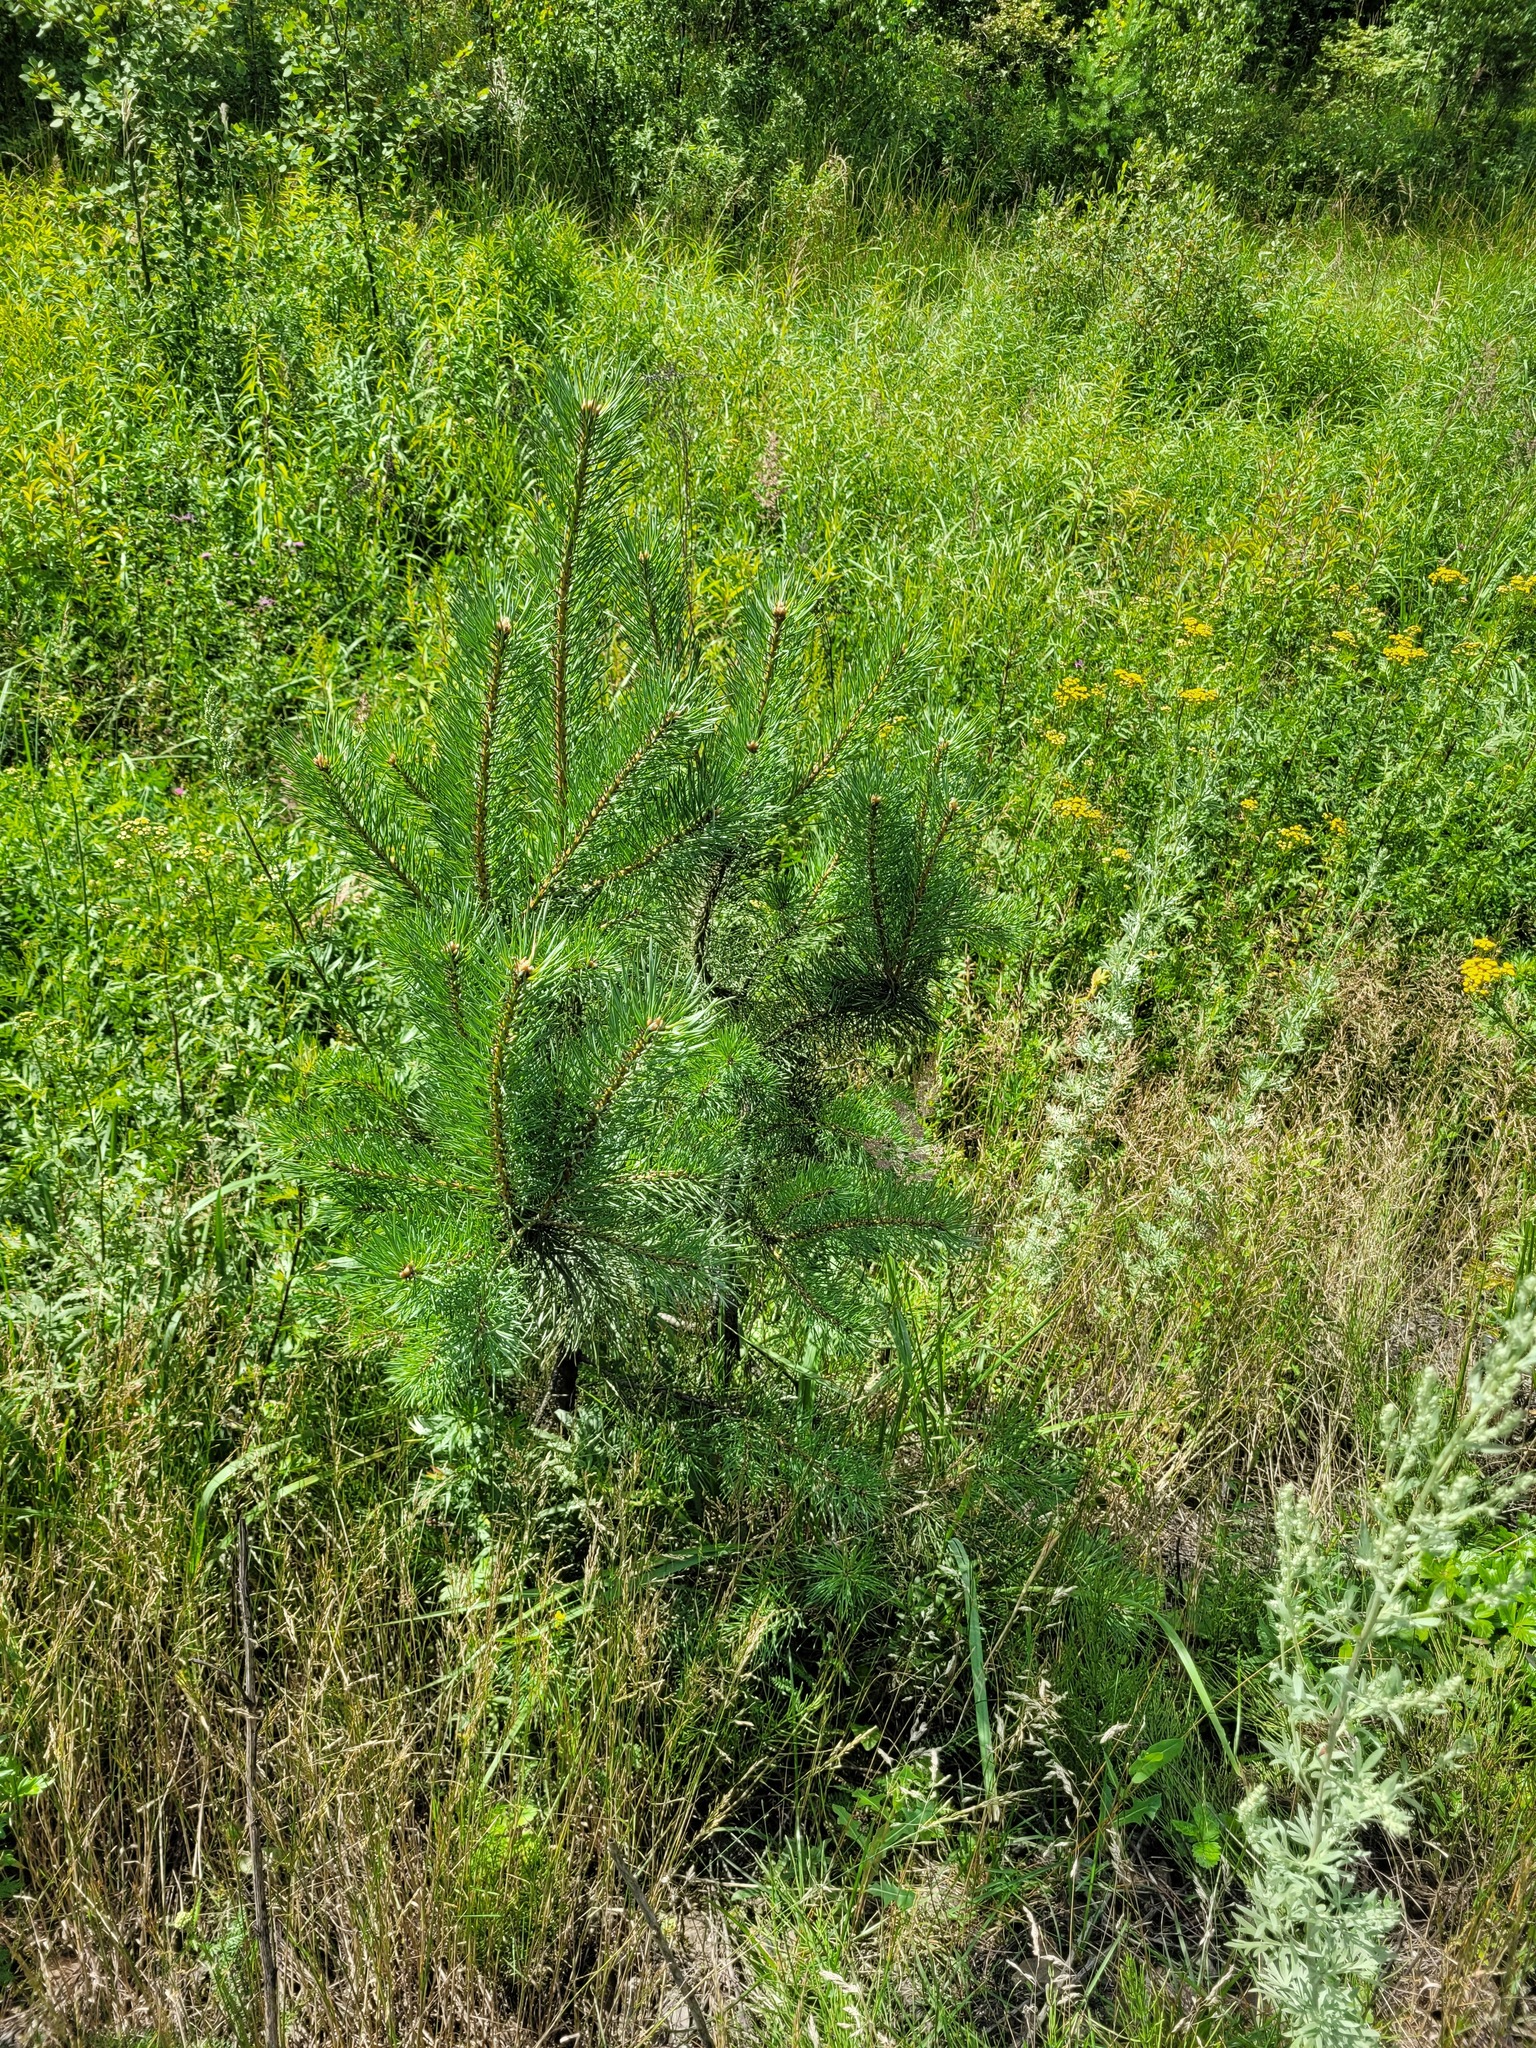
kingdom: Plantae
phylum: Tracheophyta
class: Pinopsida
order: Pinales
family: Pinaceae
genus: Pinus
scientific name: Pinus sylvestris
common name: Scots pine
